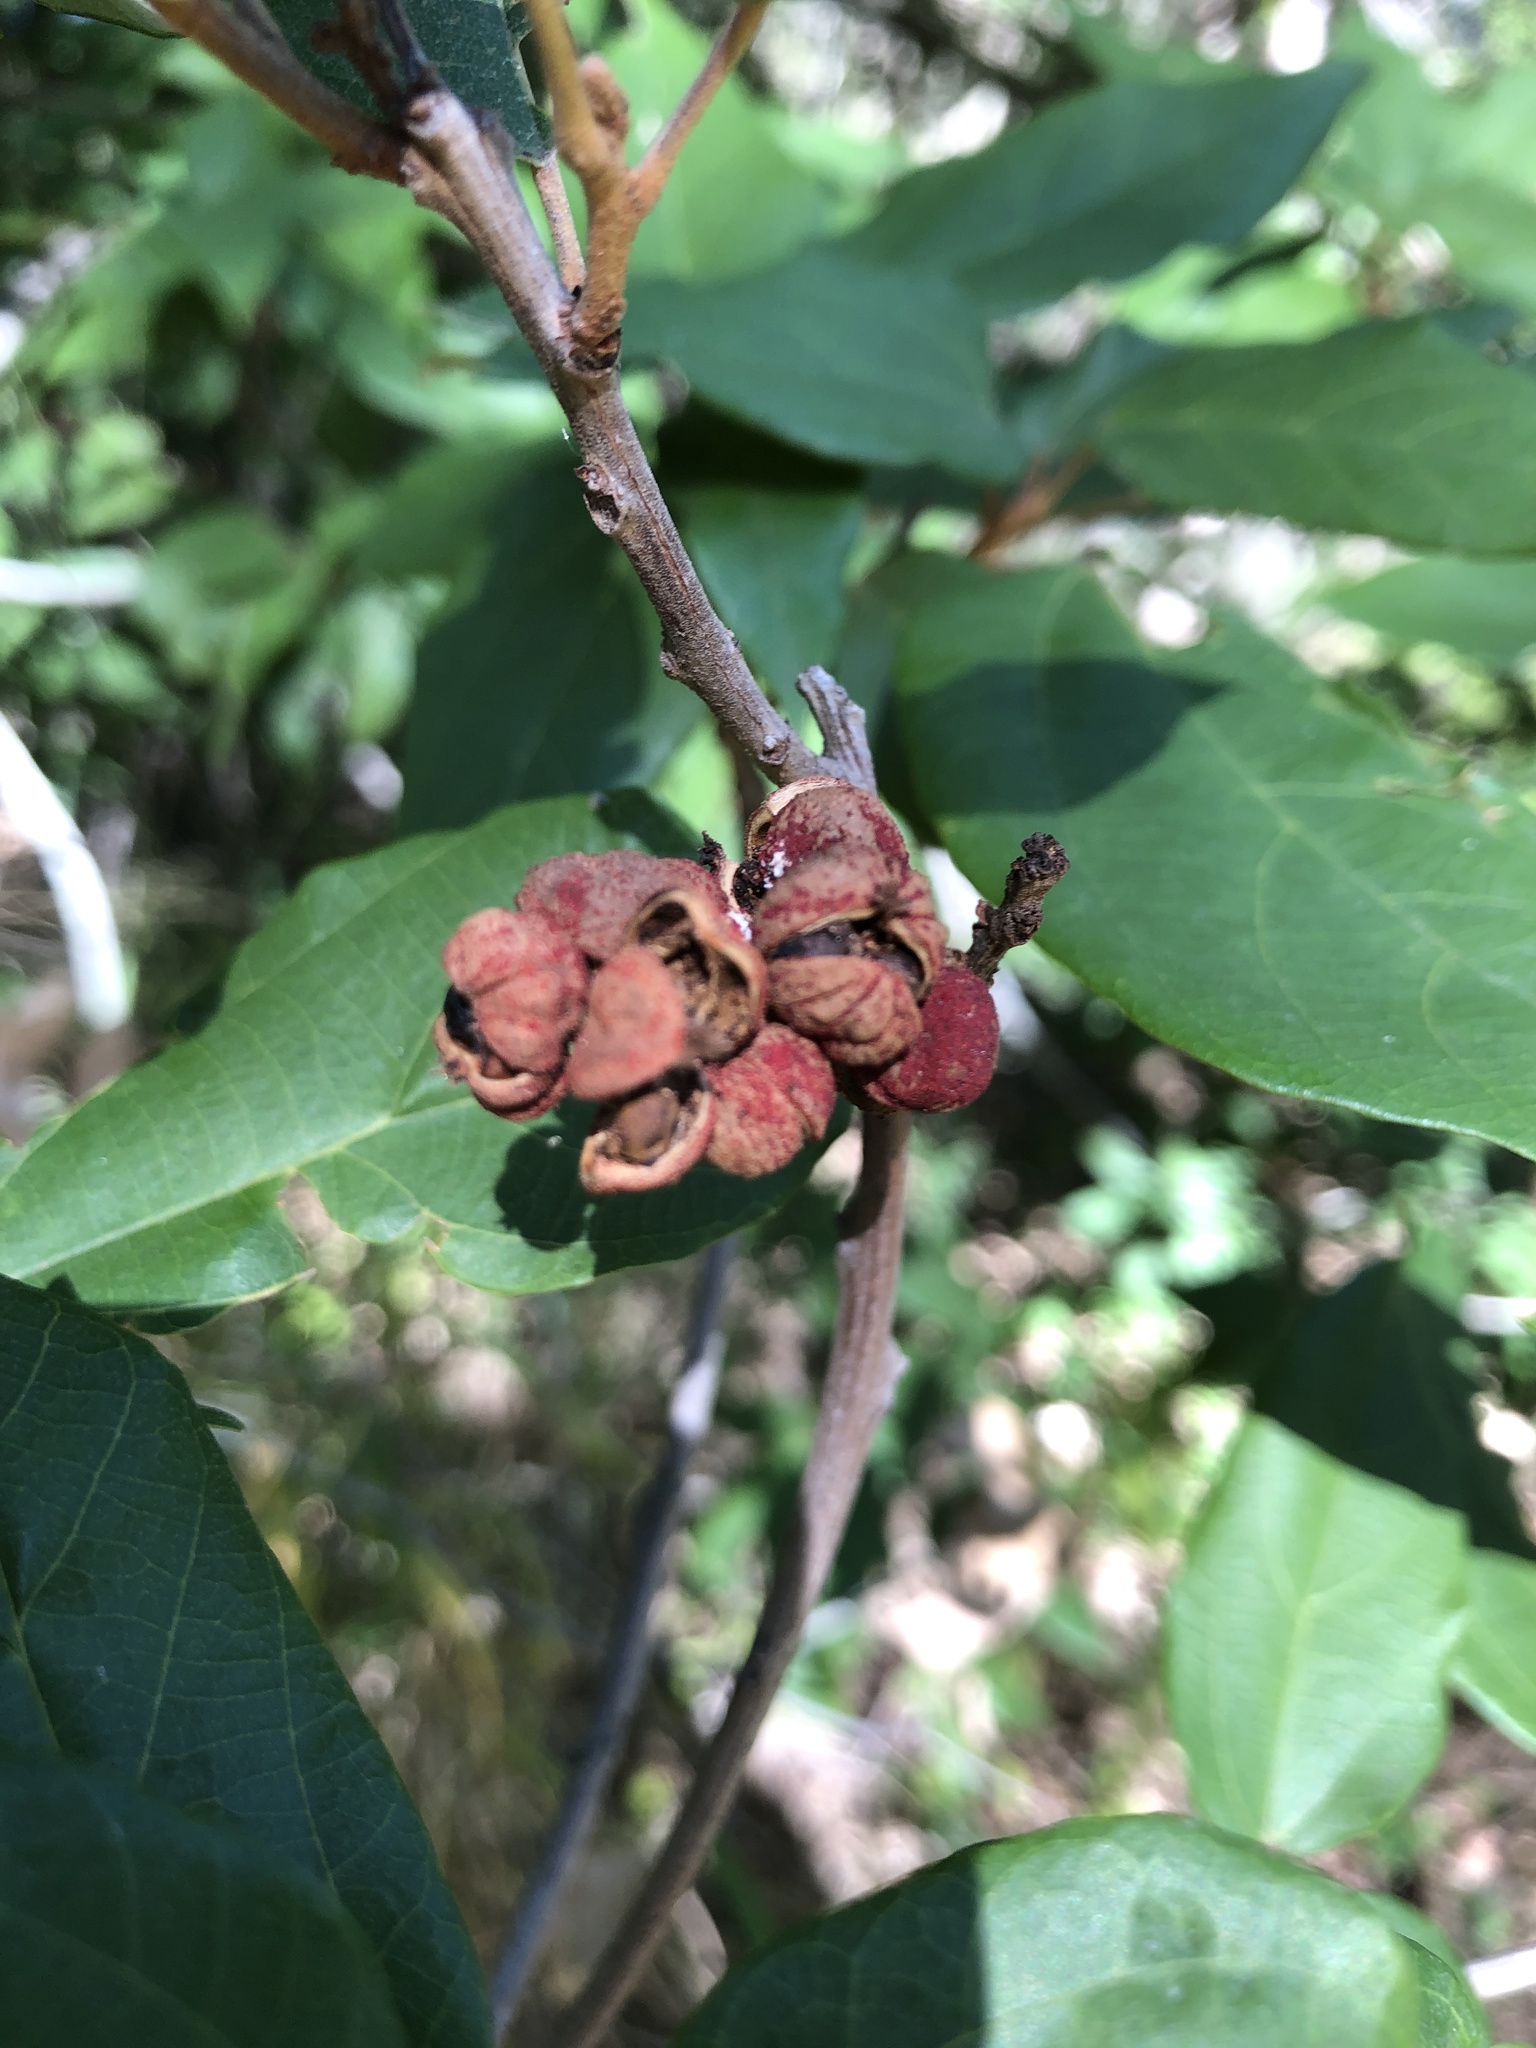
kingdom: Plantae
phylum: Tracheophyta
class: Magnoliopsida
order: Malpighiales
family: Euphorbiaceae
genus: Mallotus
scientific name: Mallotus philippensis
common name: Kamala tree
